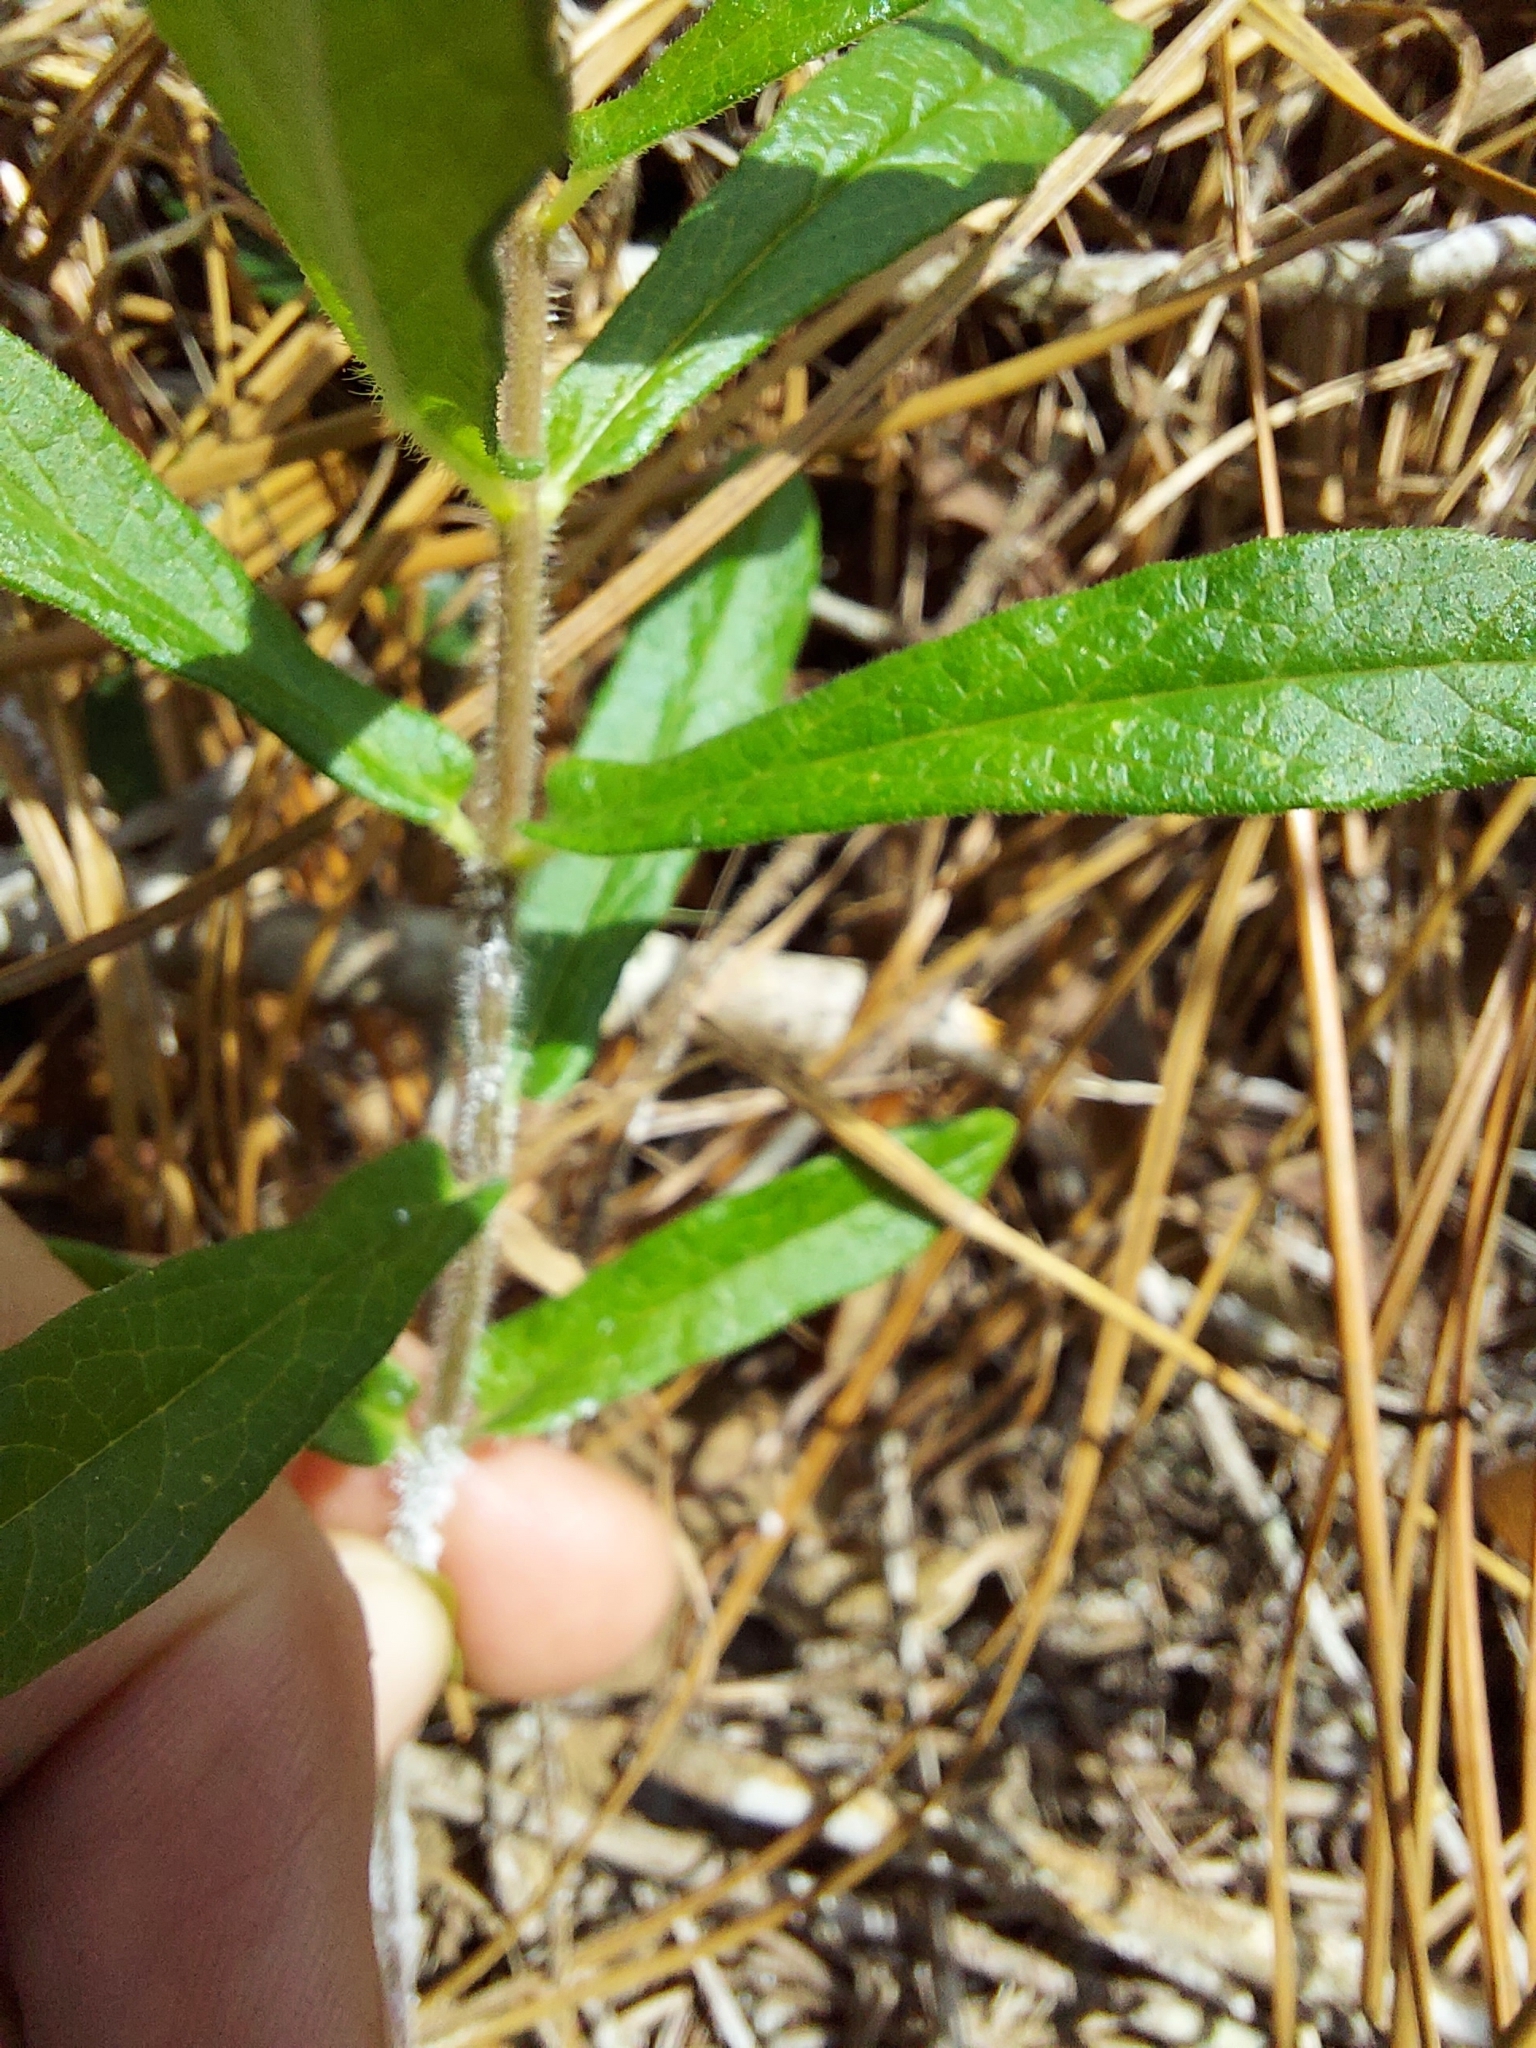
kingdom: Plantae
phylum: Tracheophyta
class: Magnoliopsida
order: Gentianales
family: Apocynaceae
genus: Asclepias
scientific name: Asclepias tuberosa
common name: Butterfly milkweed
